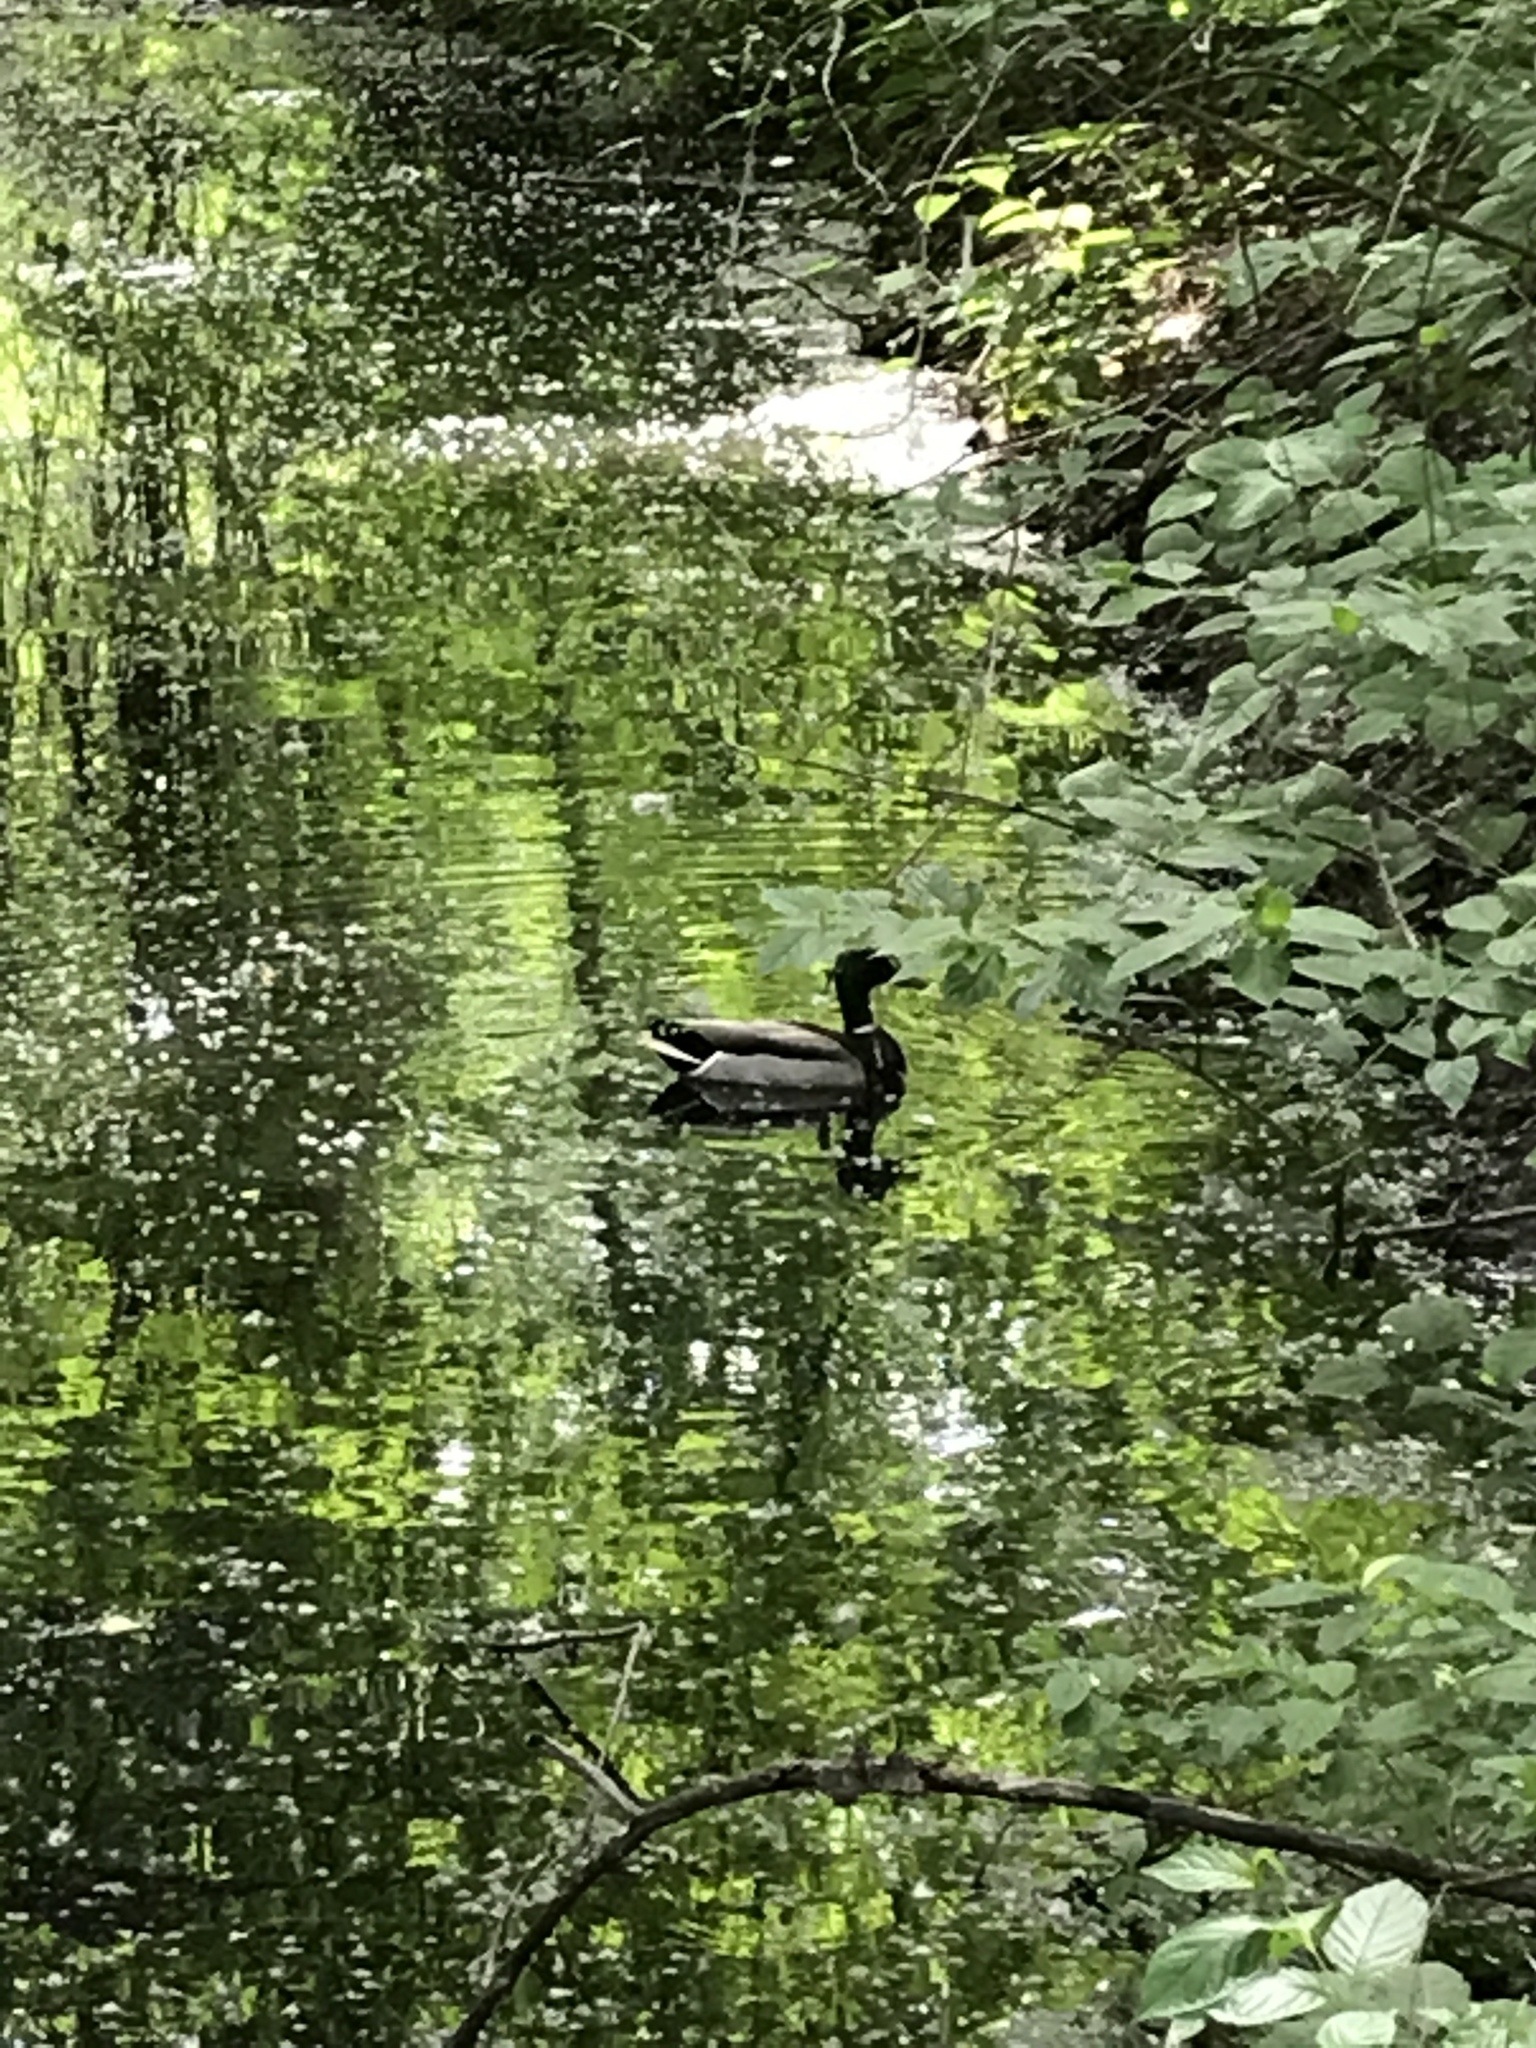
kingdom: Animalia
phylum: Chordata
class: Aves
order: Anseriformes
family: Anatidae
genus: Anas
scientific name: Anas platyrhynchos
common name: Mallard
